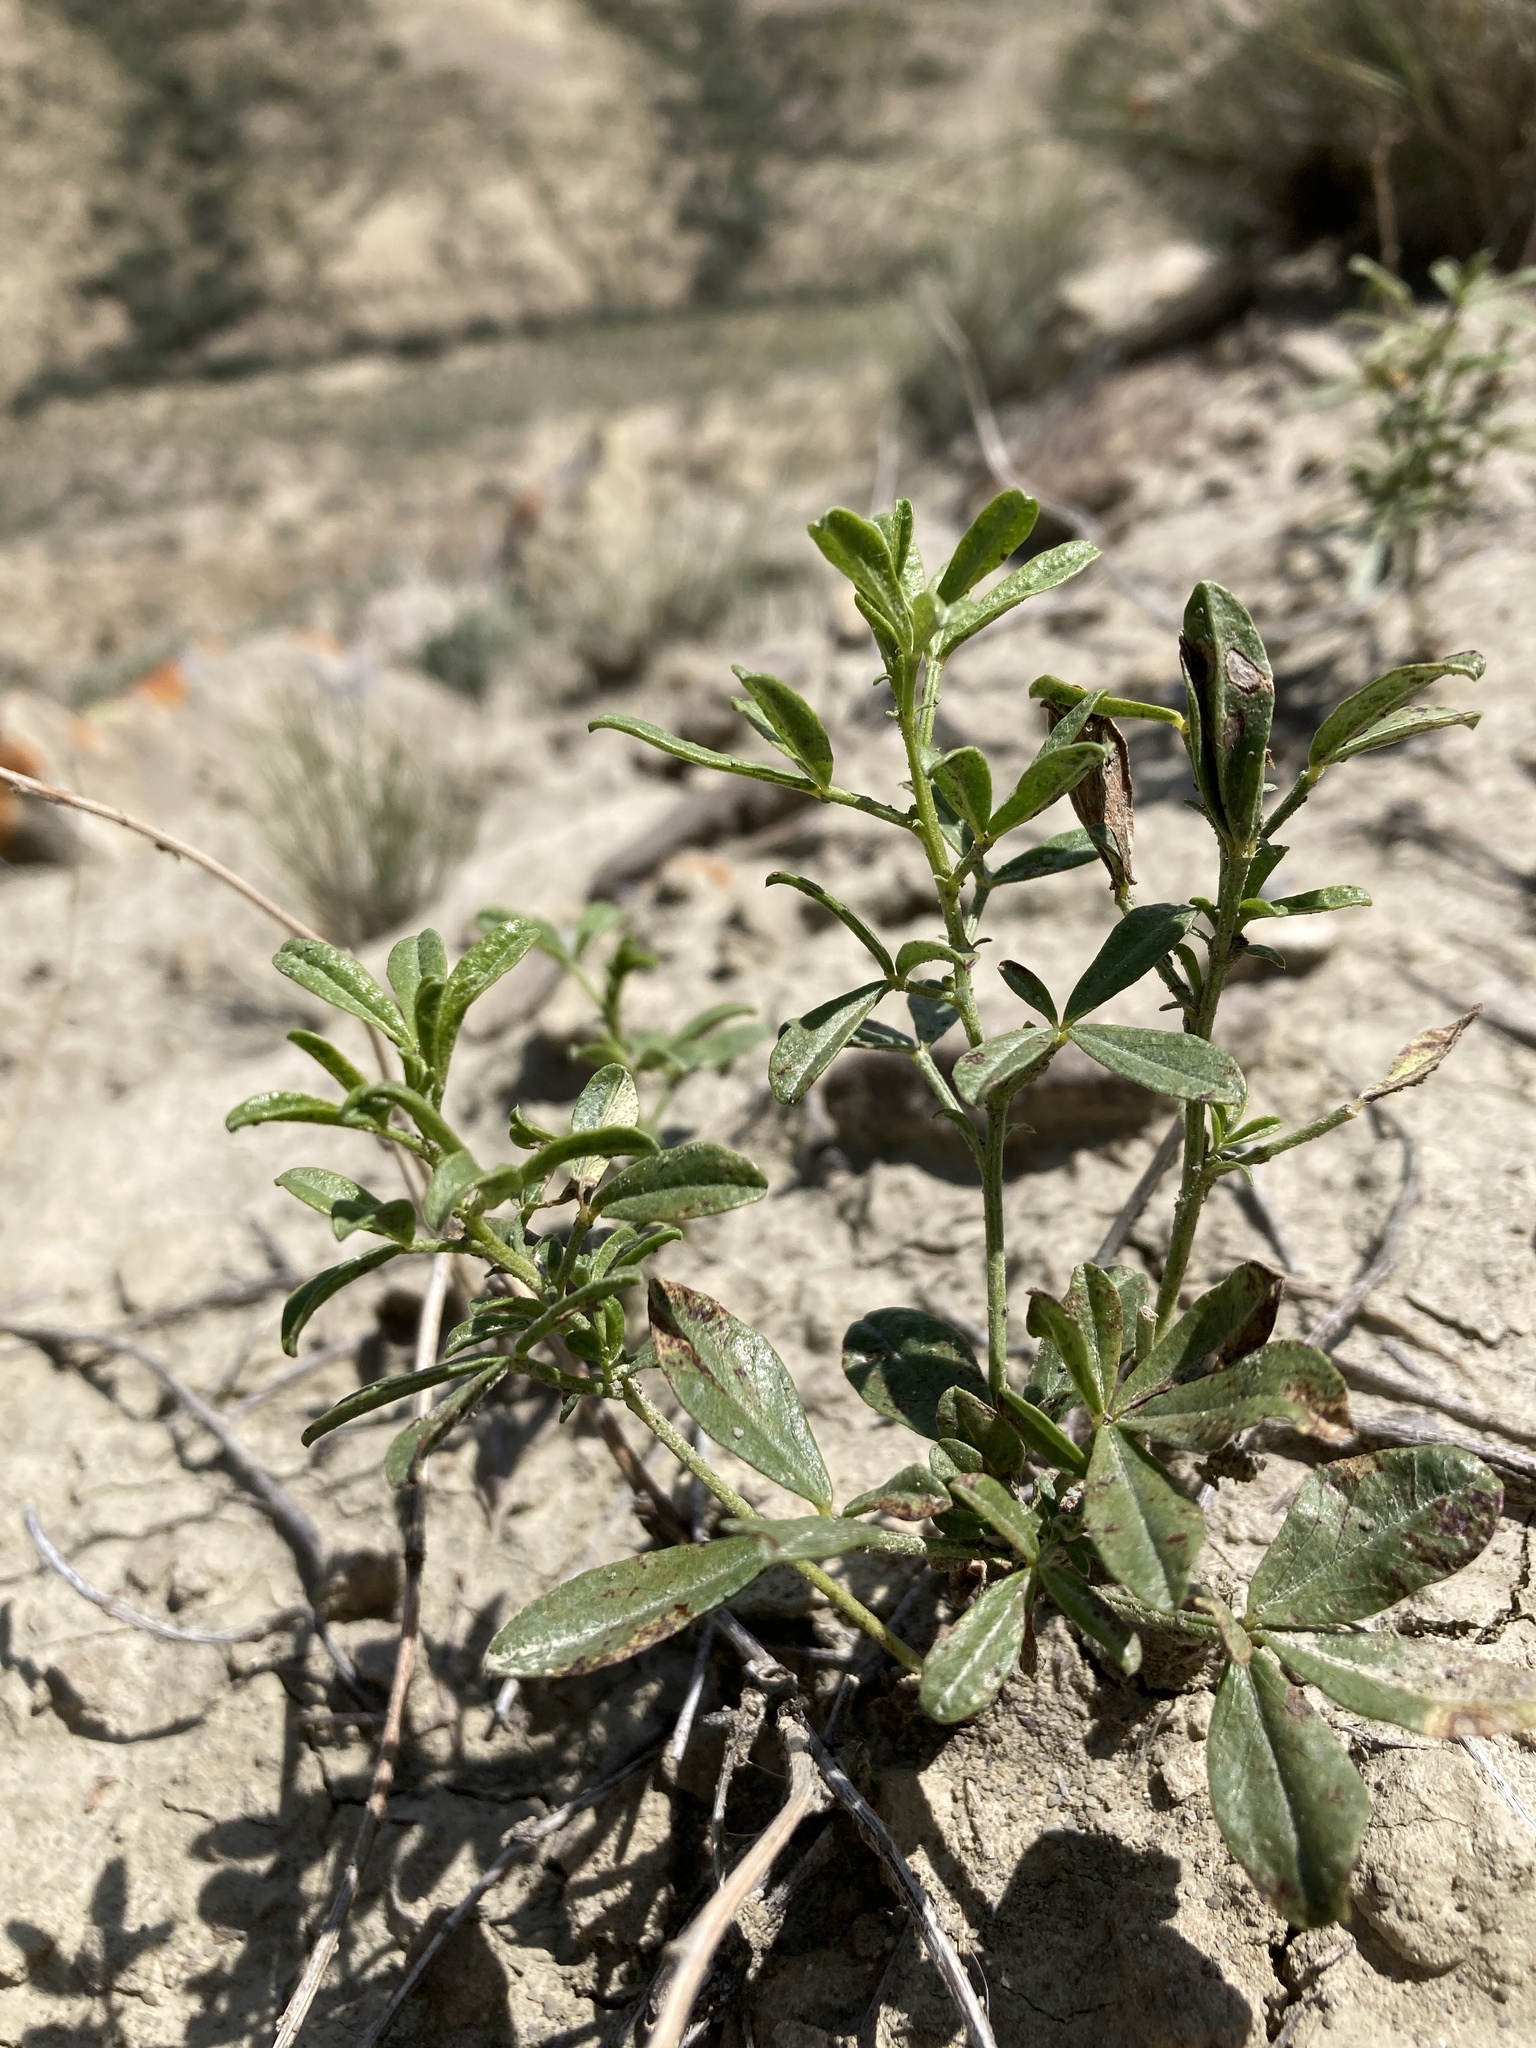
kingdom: Plantae
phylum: Tracheophyta
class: Magnoliopsida
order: Fabales
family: Fabaceae
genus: Ladeania
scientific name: Ladeania lanceolata
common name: Dune scurf-pea
